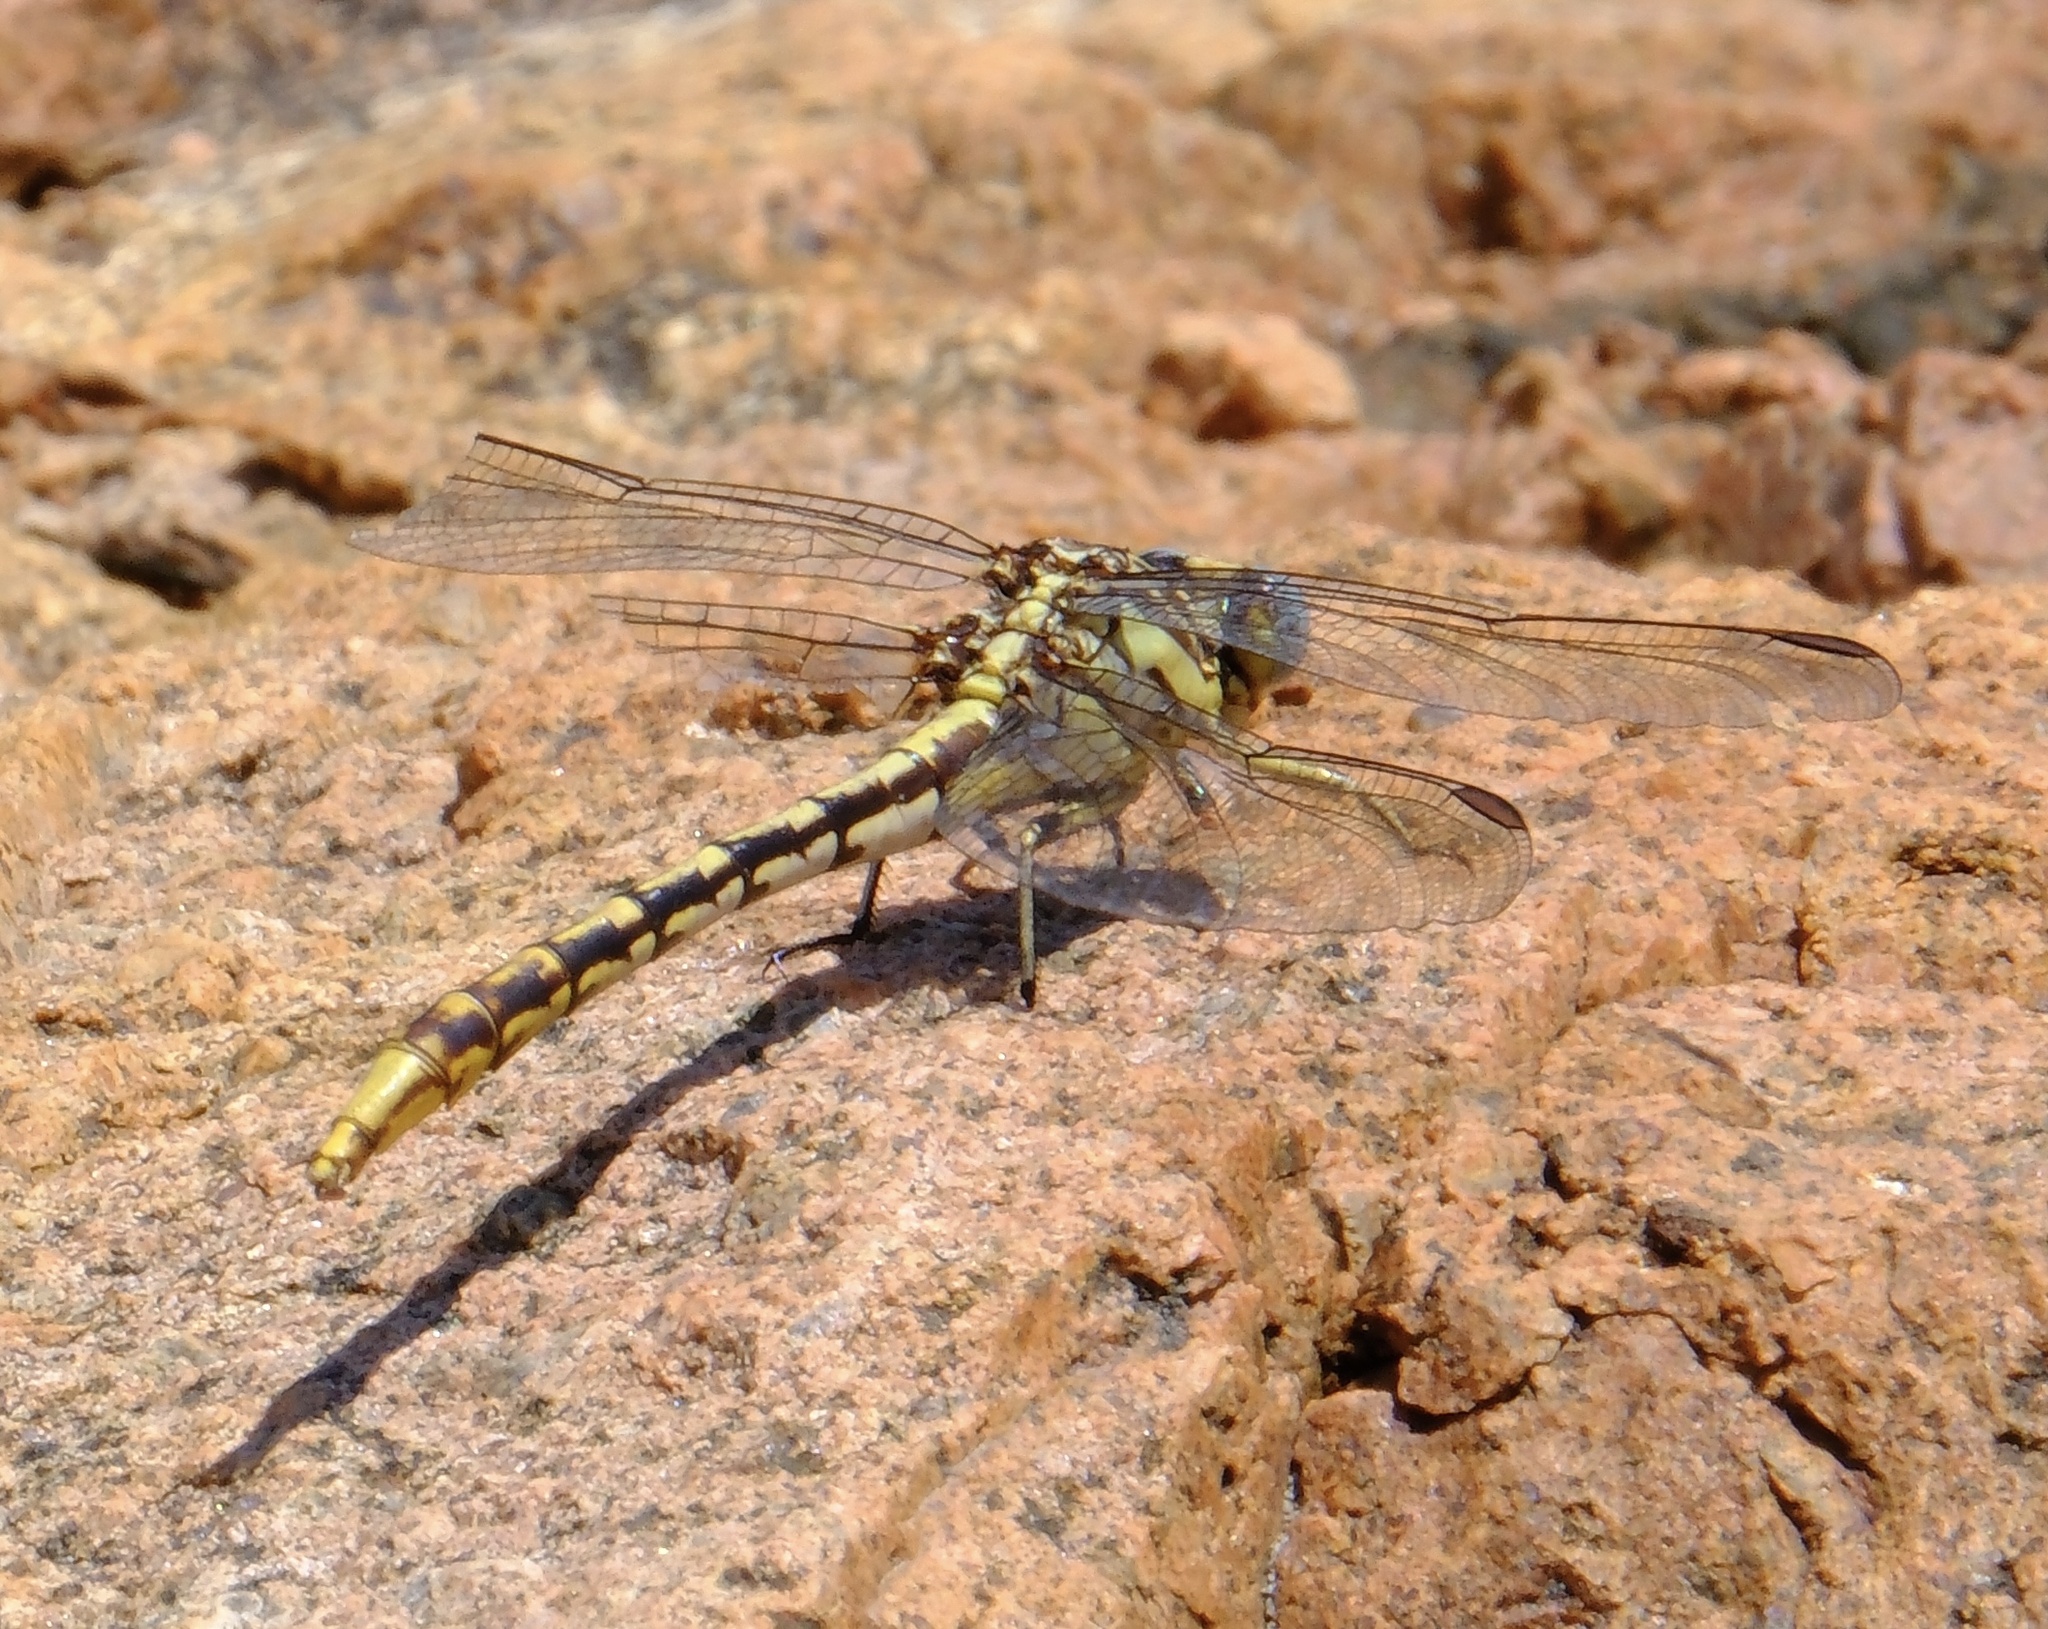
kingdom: Animalia
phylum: Arthropoda
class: Insecta
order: Odonata
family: Gomphidae
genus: Phanogomphus
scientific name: Phanogomphus militaris
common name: Sulphur-tipped clubtail
